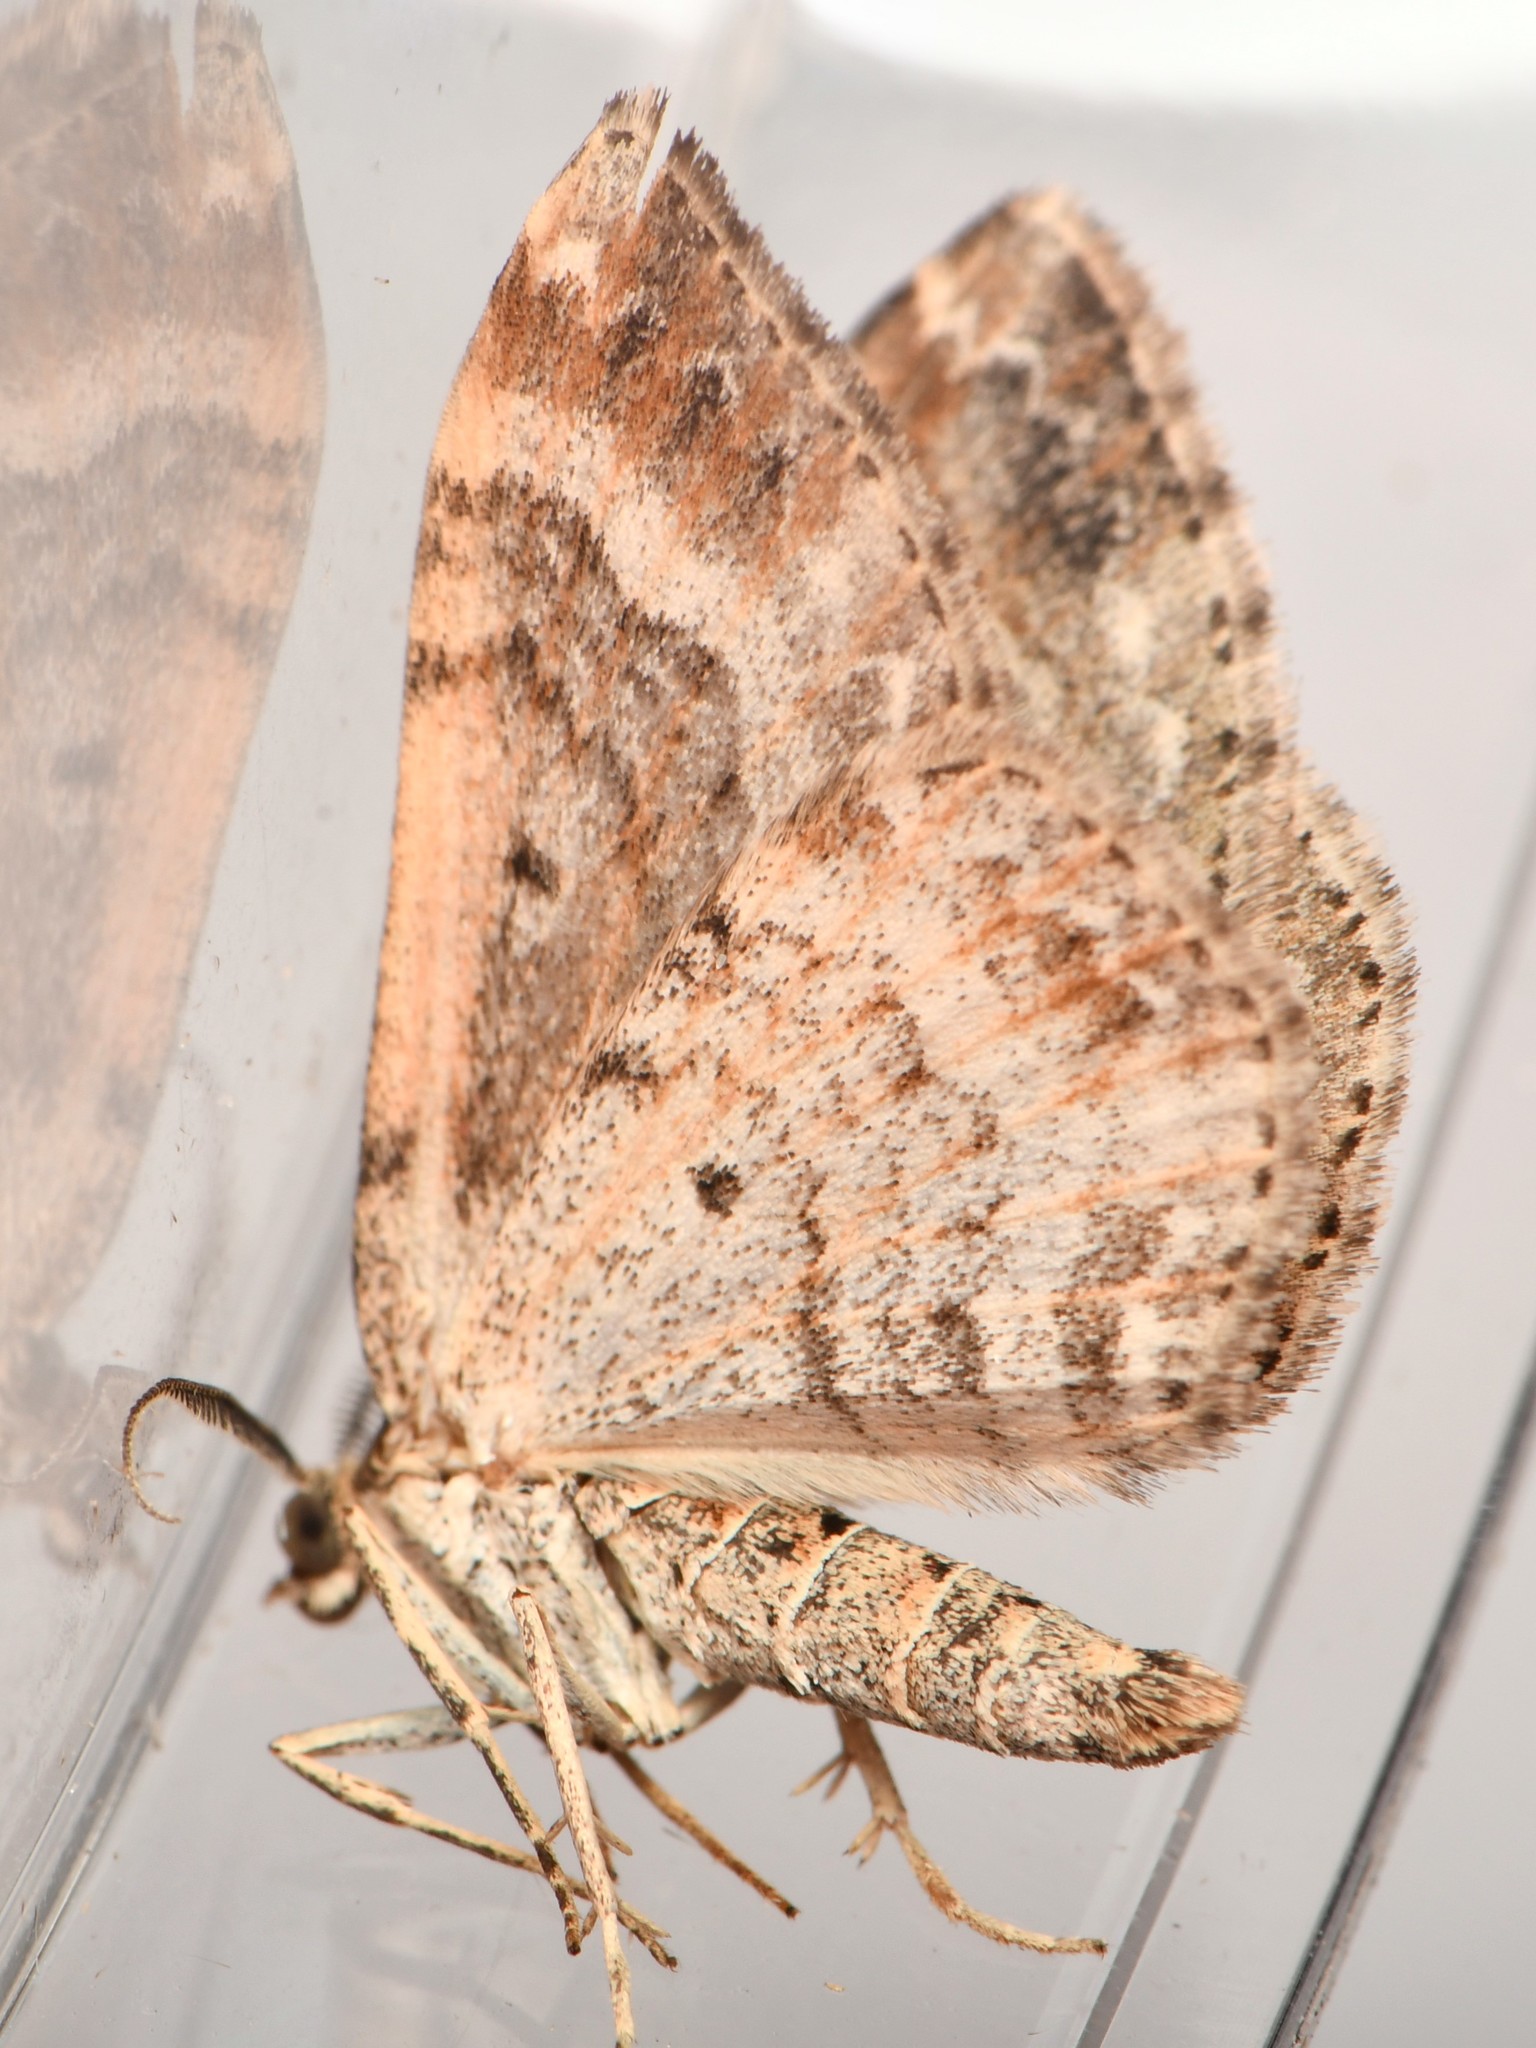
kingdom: Animalia
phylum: Arthropoda
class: Insecta
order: Lepidoptera
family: Geometridae
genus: Xanthorhoe
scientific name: Xanthorhoe spadicearia
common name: Red twin-spot carpet
